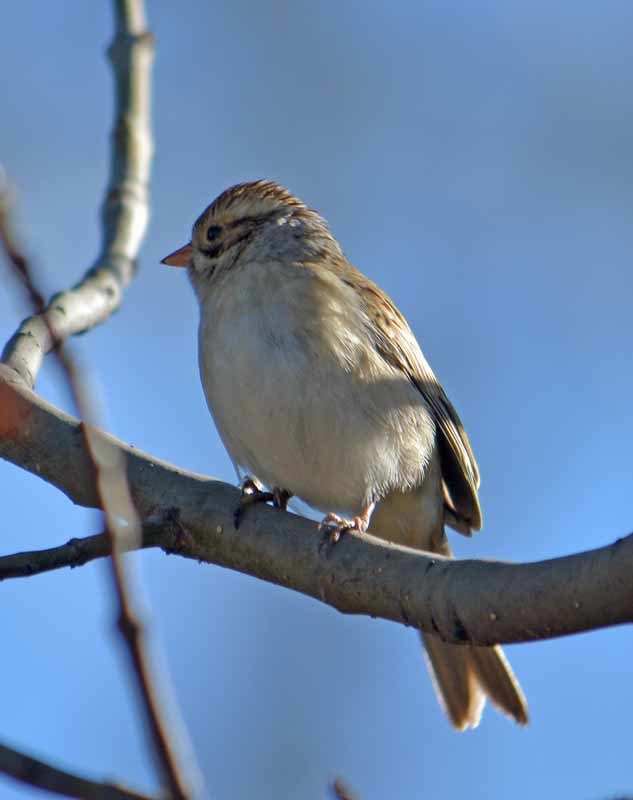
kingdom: Animalia
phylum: Chordata
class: Aves
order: Passeriformes
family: Passerellidae
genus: Spizella
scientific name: Spizella pallida
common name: Clay-colored sparrow
